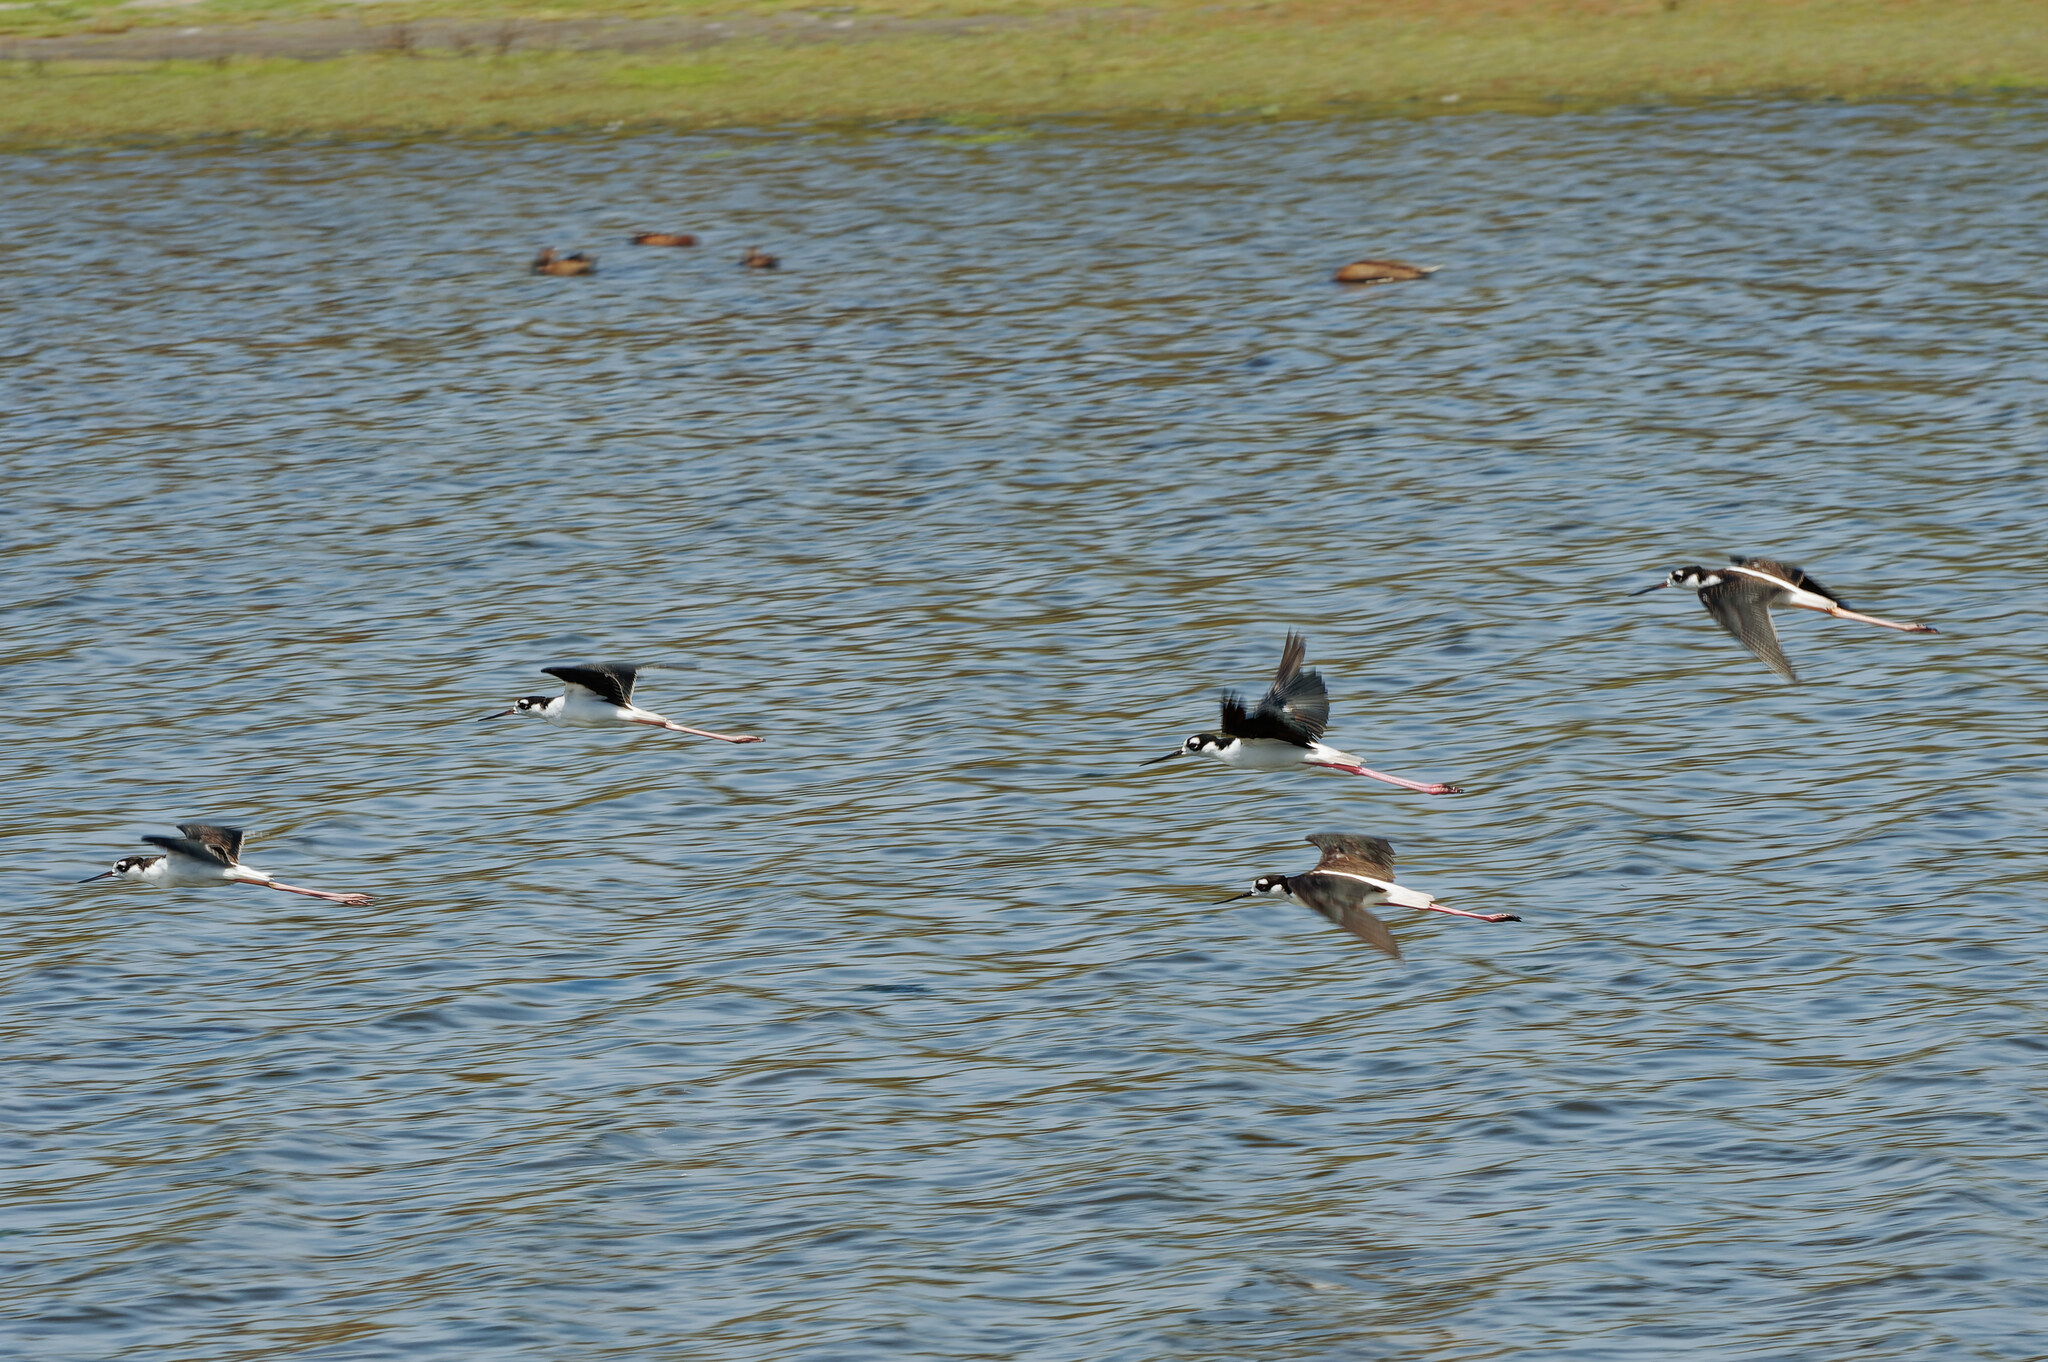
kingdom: Animalia
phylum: Chordata
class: Aves
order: Charadriiformes
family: Recurvirostridae
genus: Himantopus
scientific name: Himantopus mexicanus
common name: Black-necked stilt
